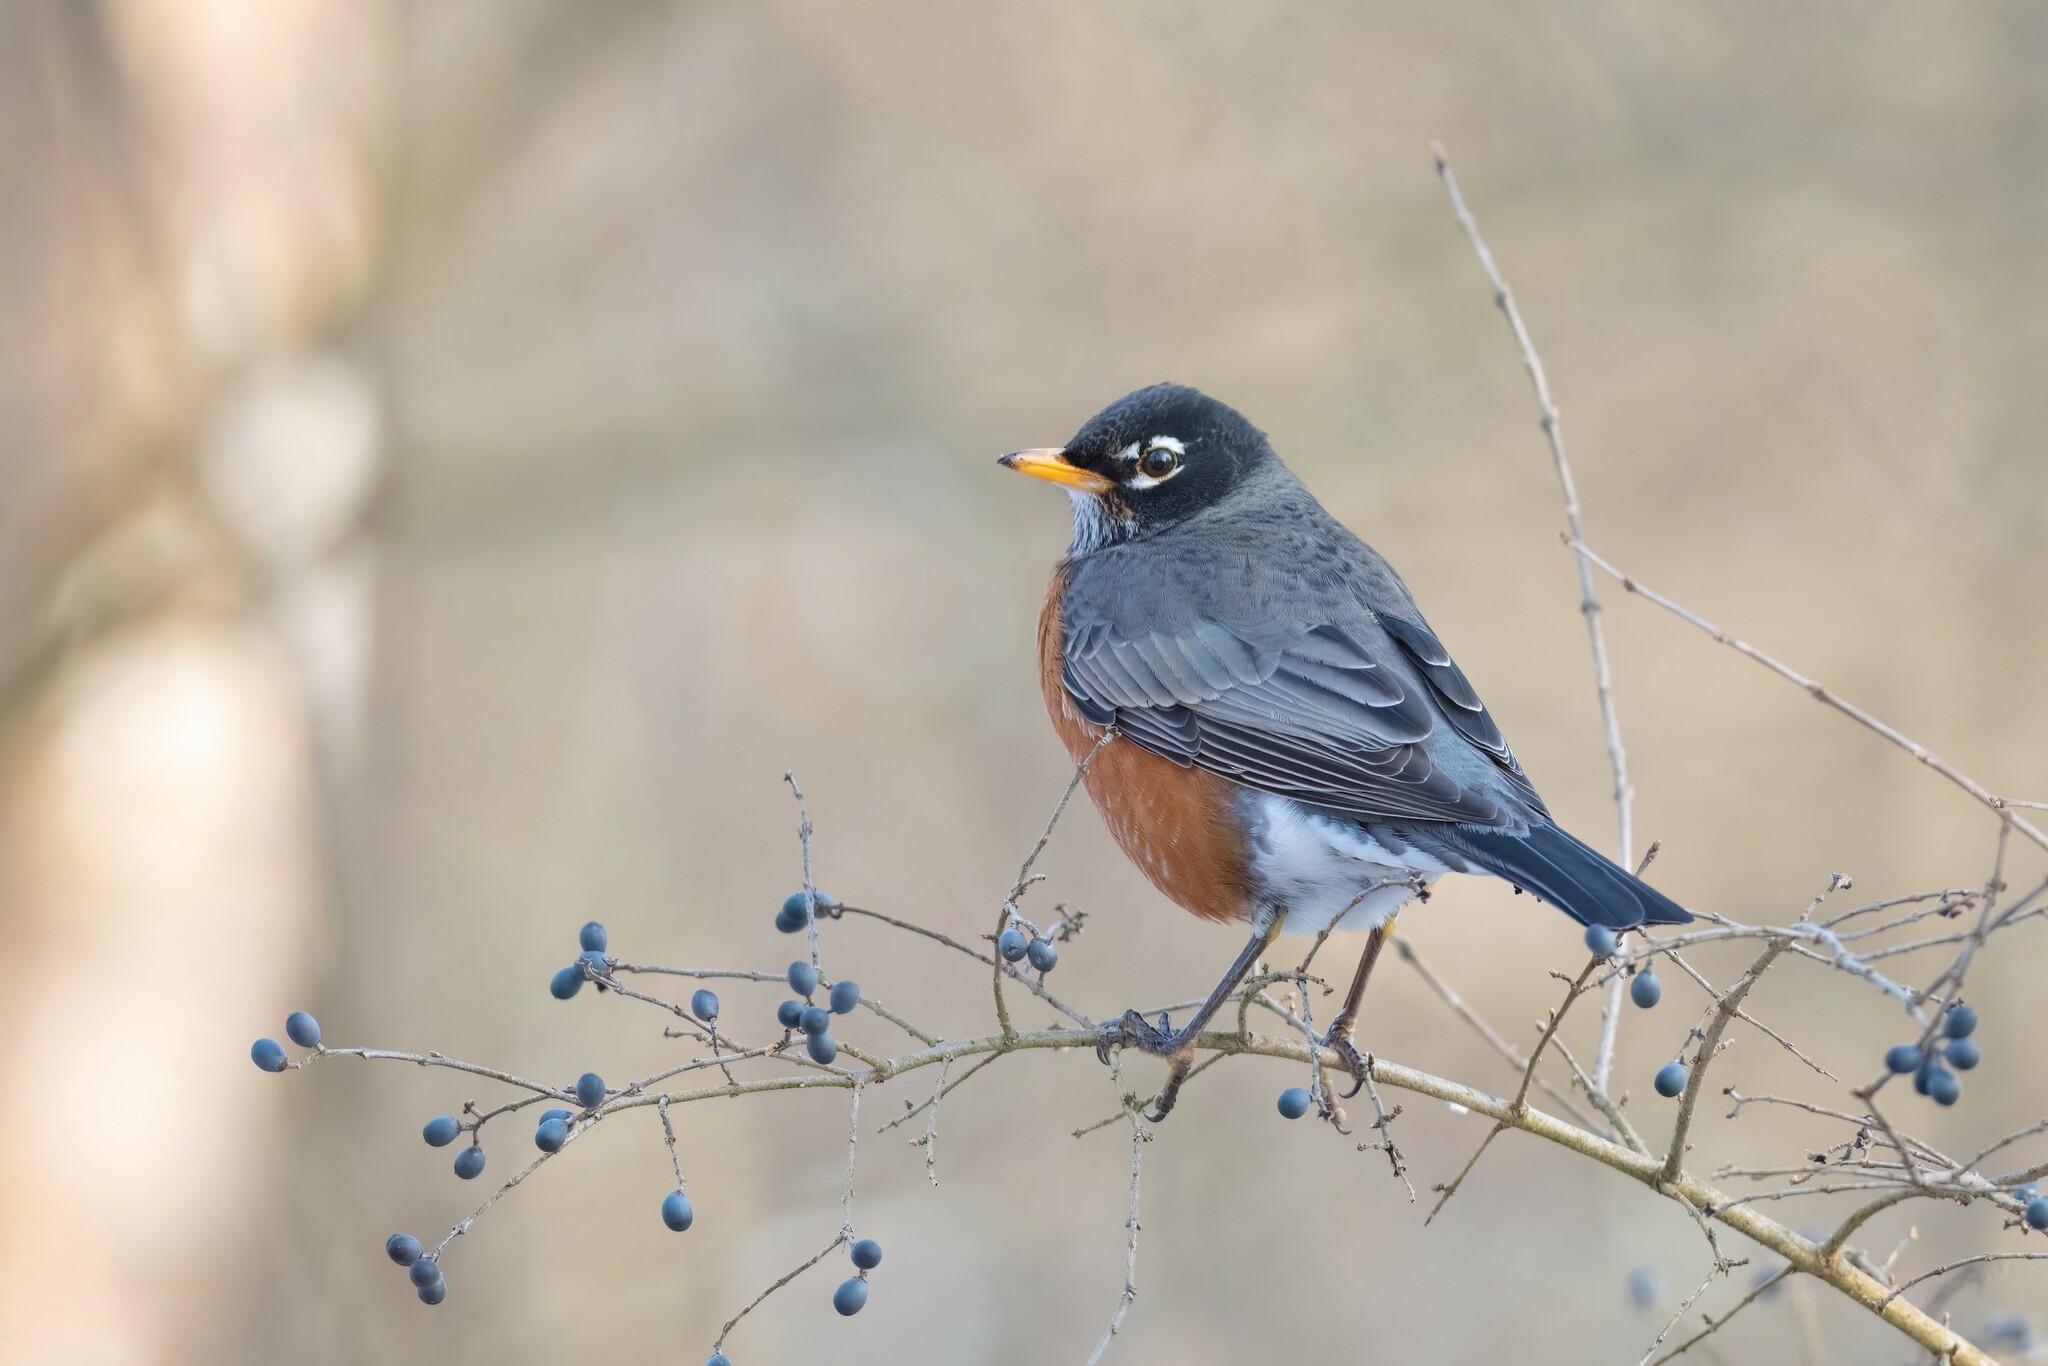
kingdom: Animalia
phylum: Chordata
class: Aves
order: Passeriformes
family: Turdidae
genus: Turdus
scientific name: Turdus migratorius
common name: American robin
